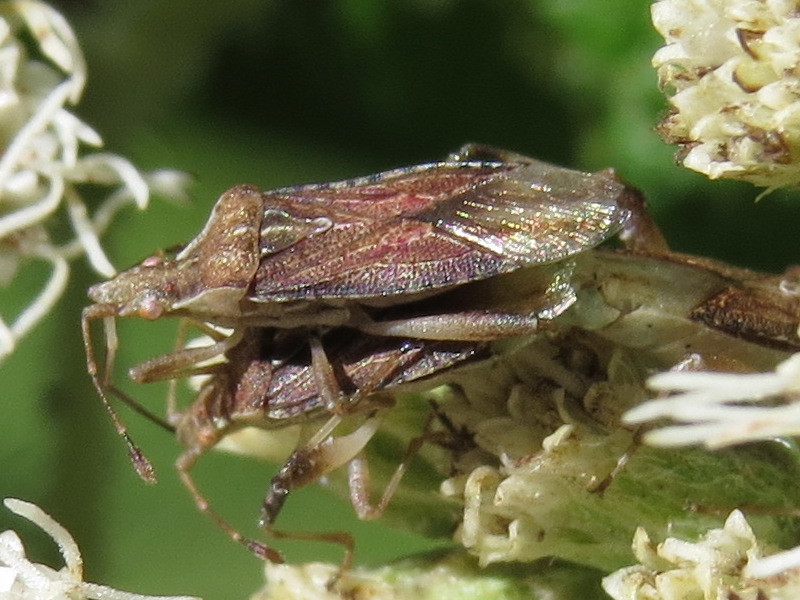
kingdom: Animalia
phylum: Arthropoda
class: Insecta
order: Hemiptera
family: Rhopalidae
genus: Harmostes
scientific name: Harmostes fraterculus
